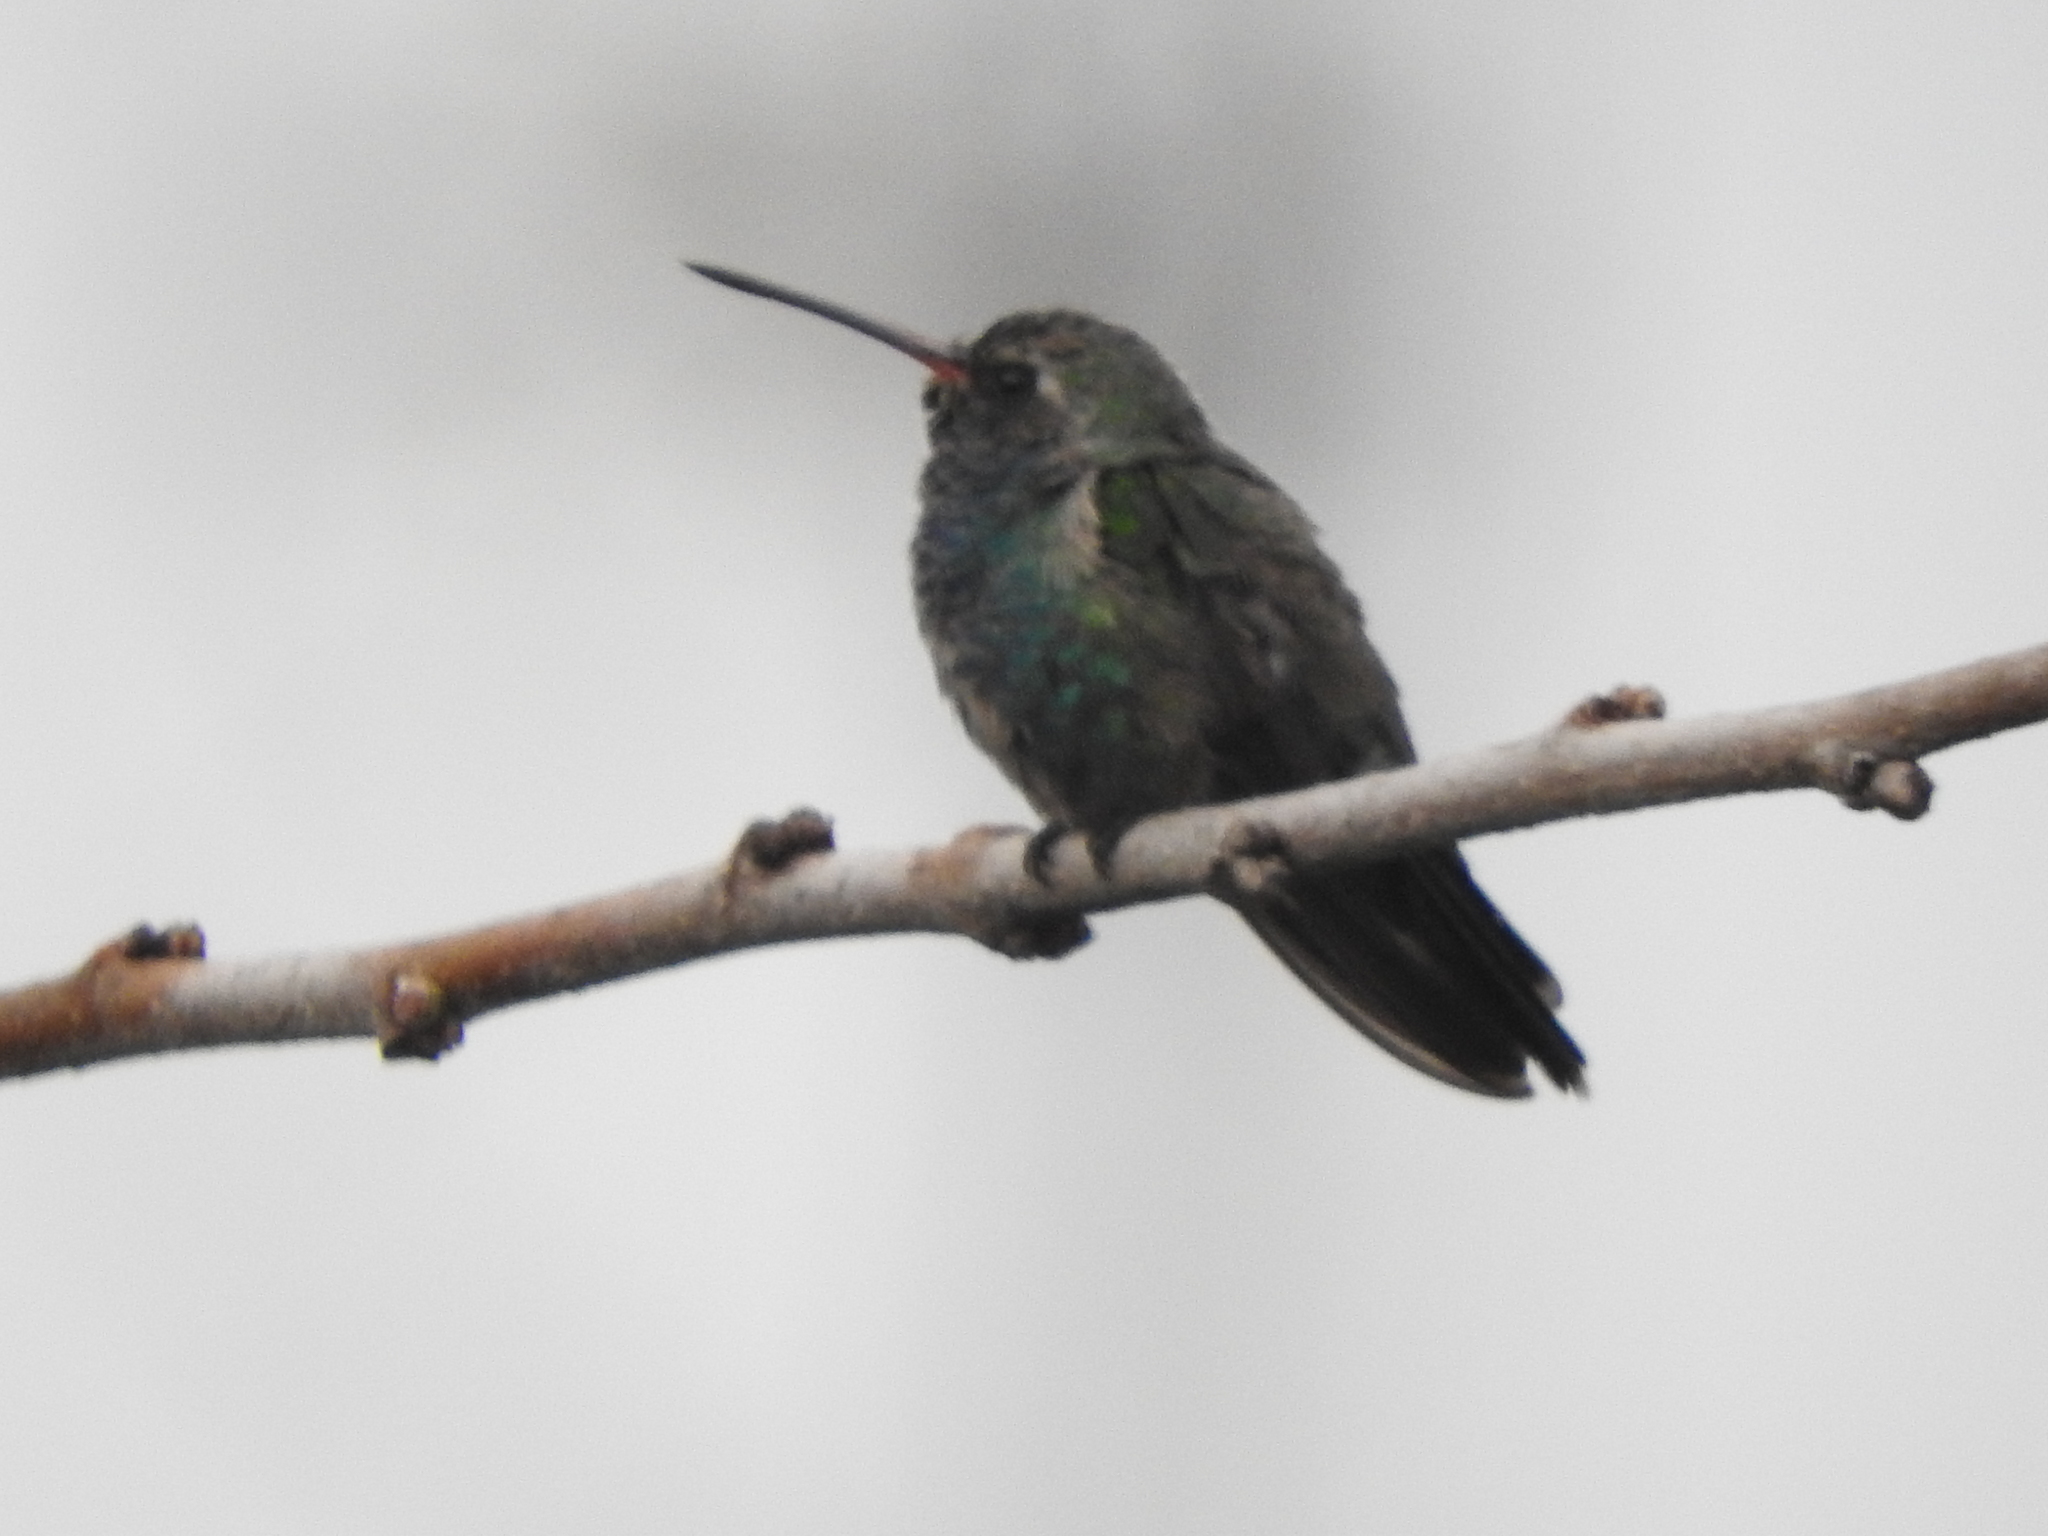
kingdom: Animalia
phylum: Chordata
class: Aves
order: Apodiformes
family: Trochilidae
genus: Cynanthus
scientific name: Cynanthus latirostris
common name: Broad-billed hummingbird
